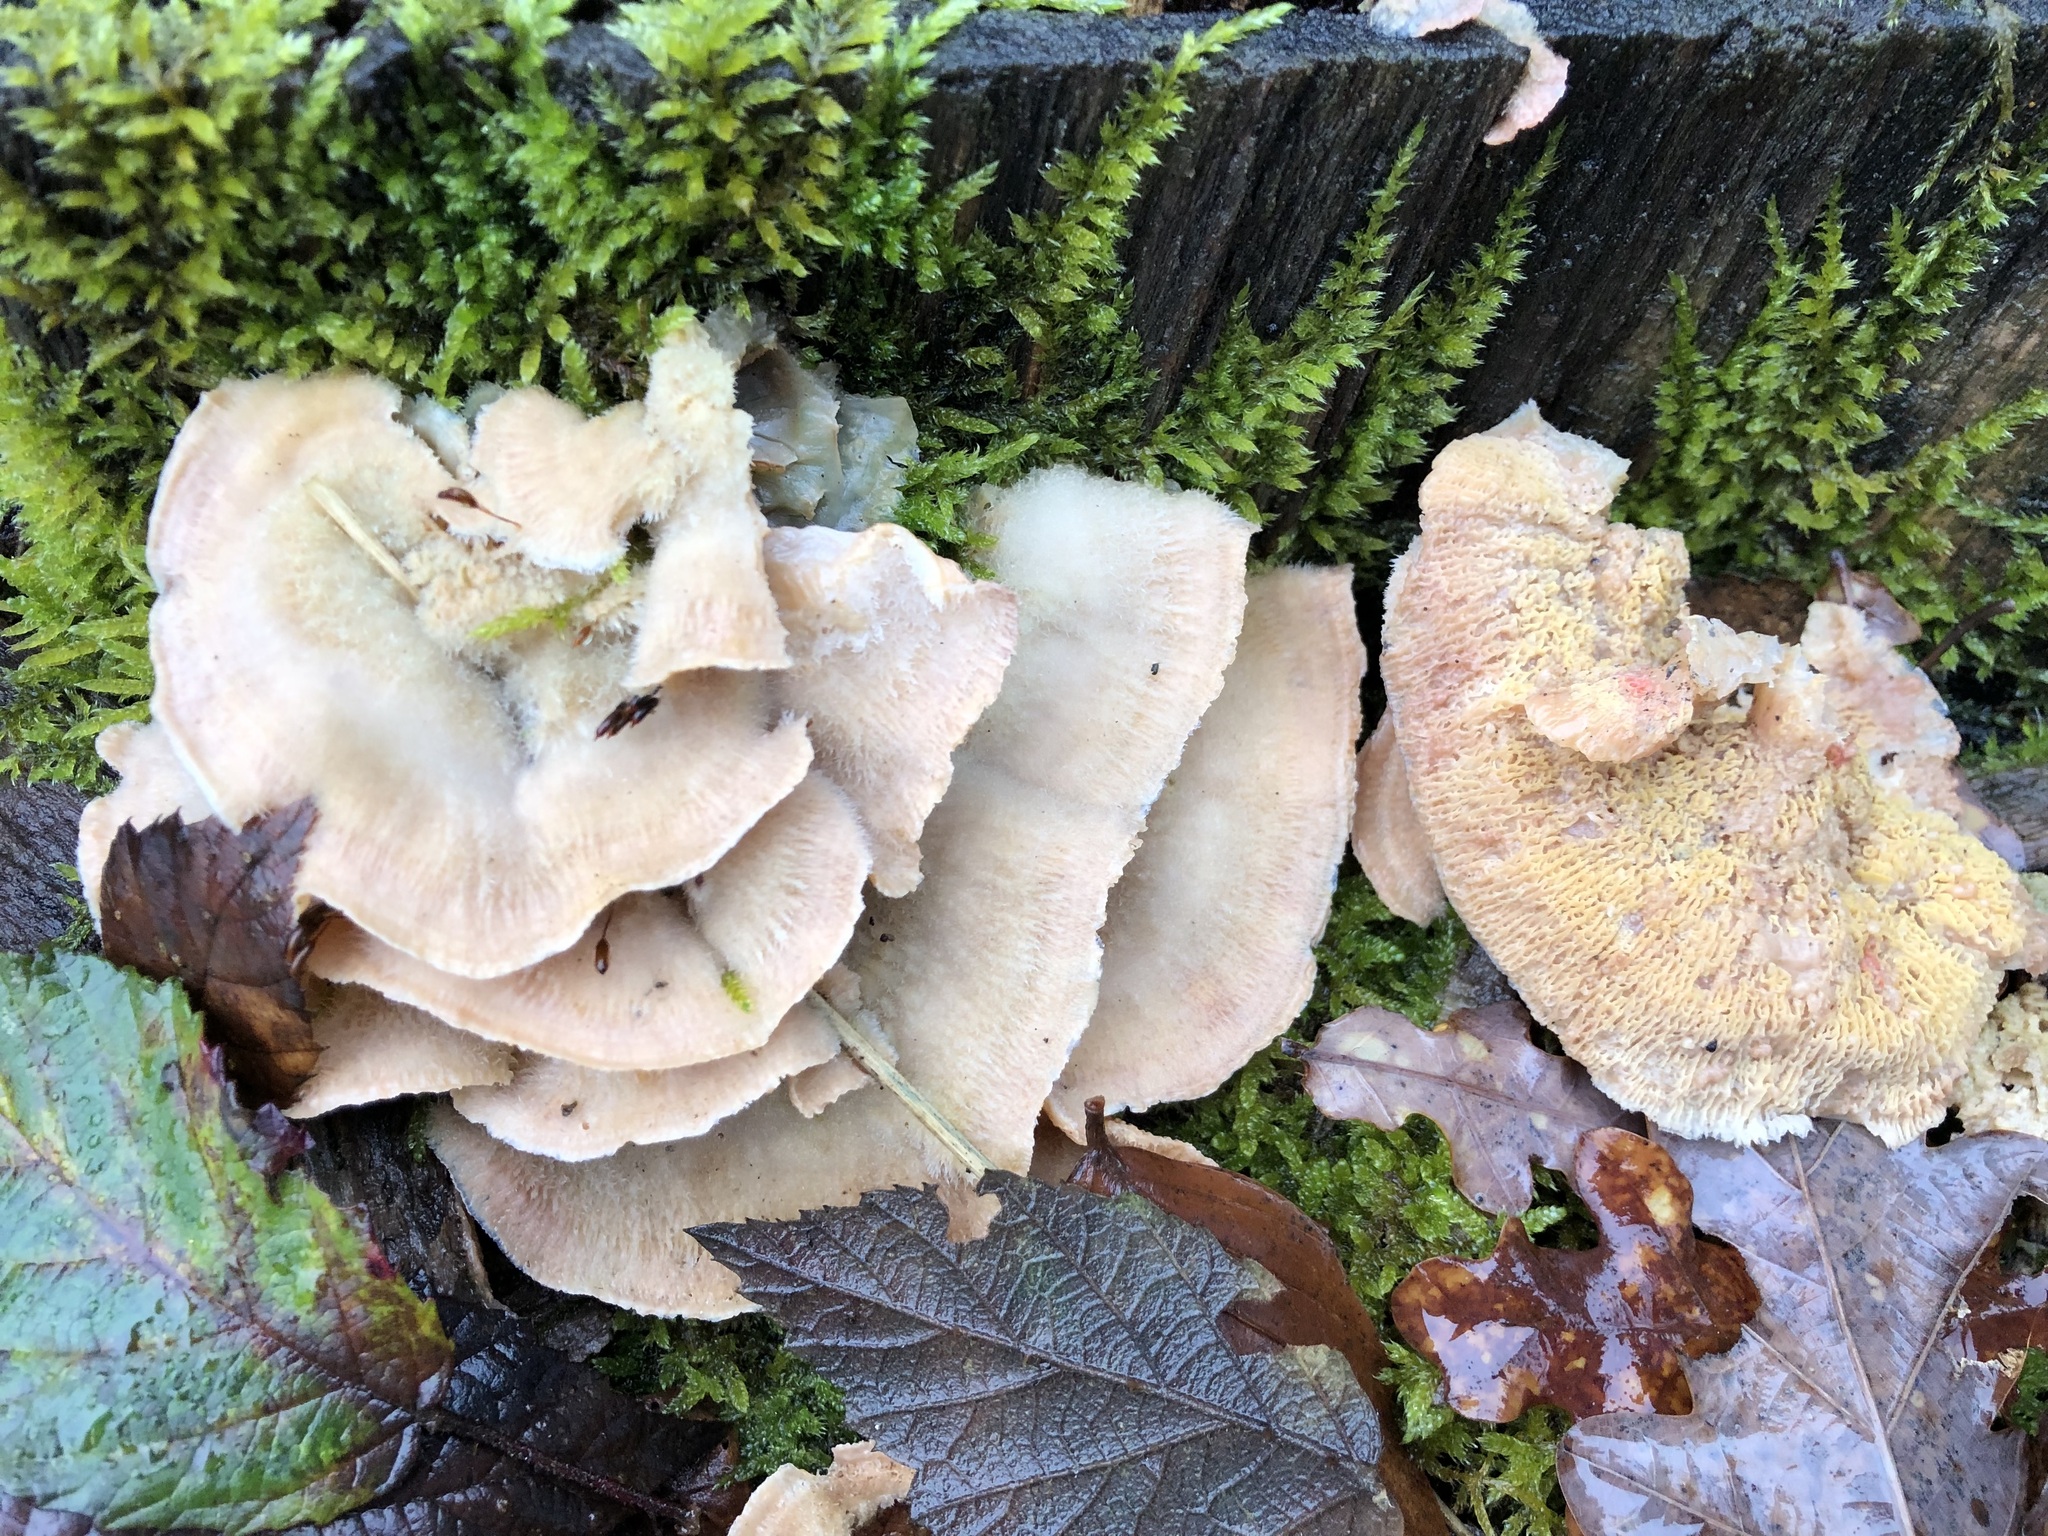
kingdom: Fungi
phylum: Basidiomycota
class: Agaricomycetes
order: Polyporales
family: Meruliaceae
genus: Phlebia
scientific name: Phlebia tremellosa
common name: Jelly rot
